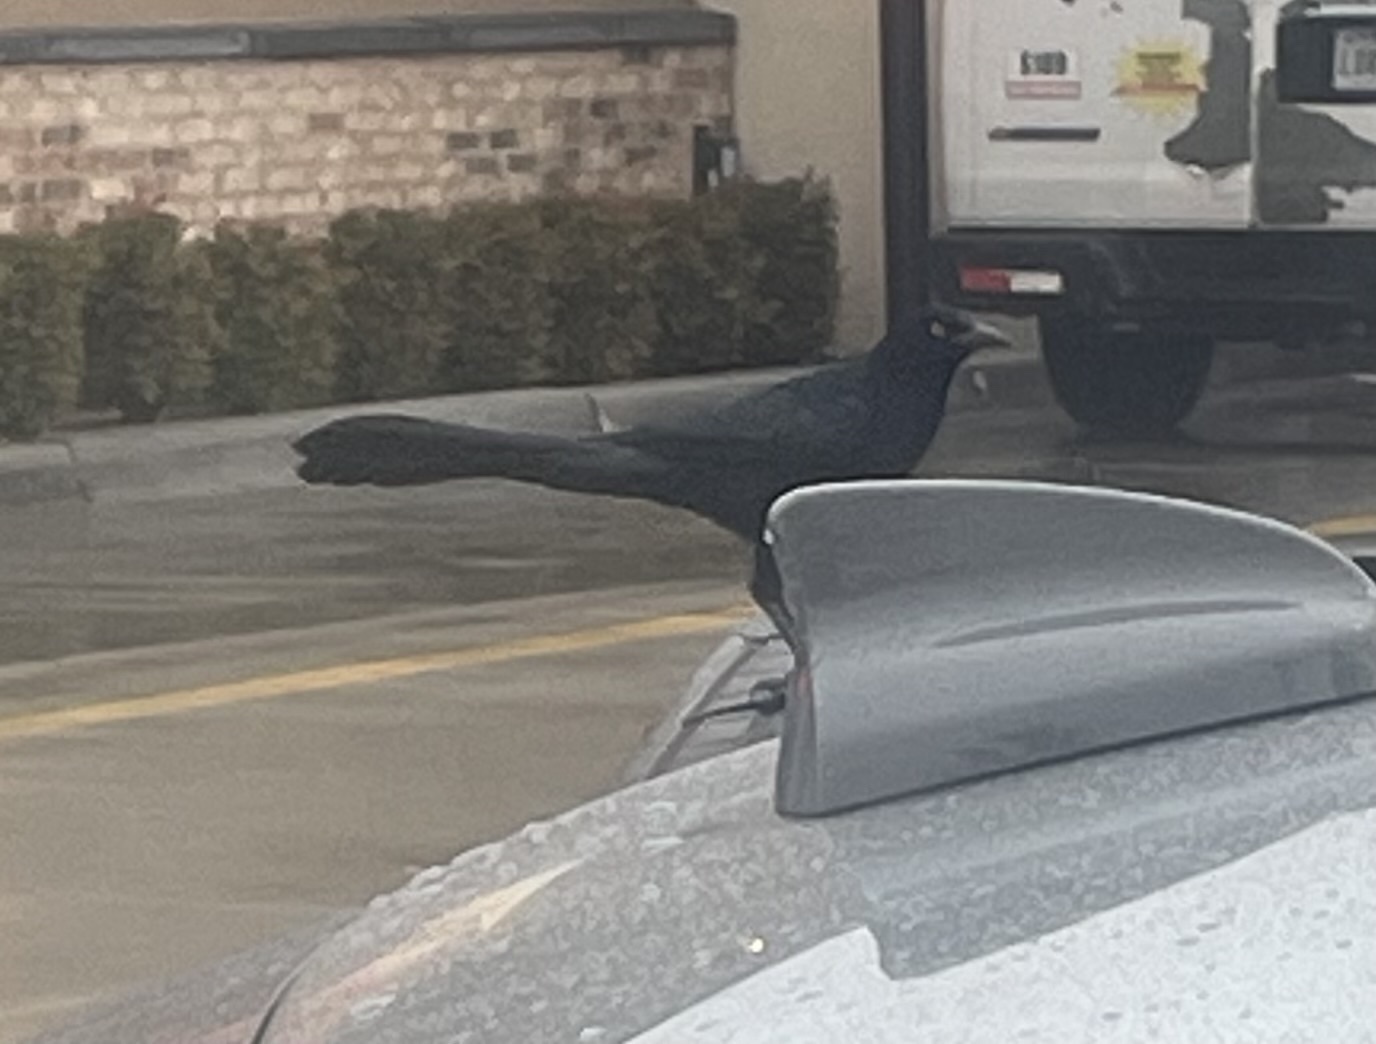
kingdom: Animalia
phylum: Chordata
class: Aves
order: Passeriformes
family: Icteridae
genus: Quiscalus
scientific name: Quiscalus mexicanus
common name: Great-tailed grackle
